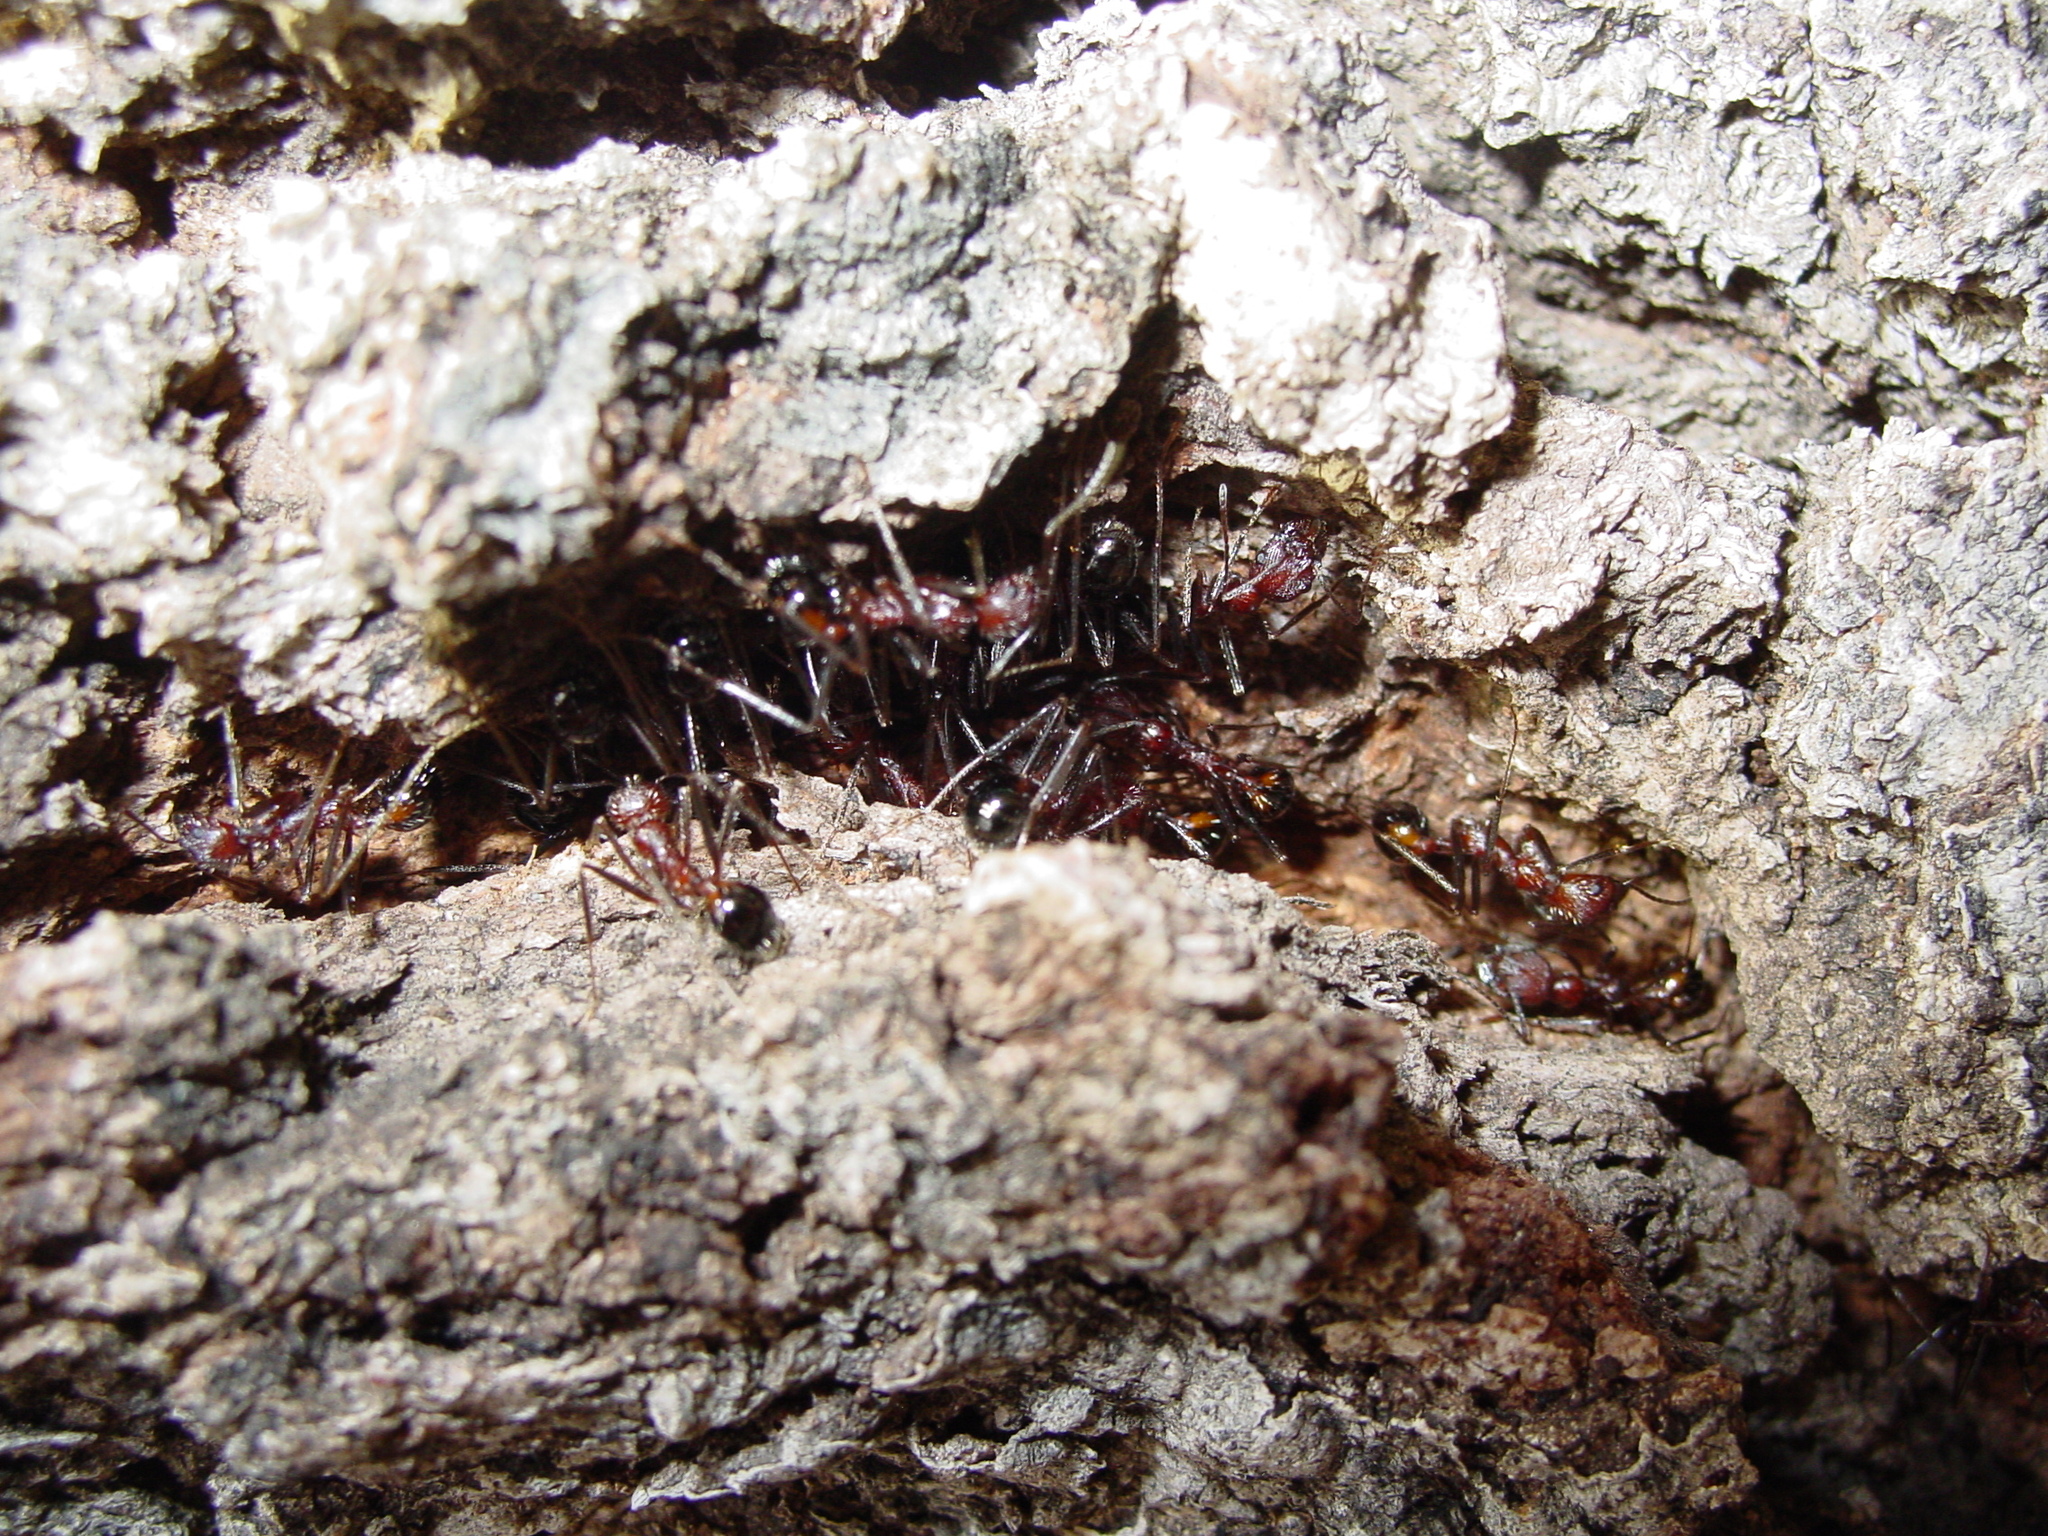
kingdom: Animalia
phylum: Arthropoda
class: Insecta
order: Hymenoptera
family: Formicidae
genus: Novomessor
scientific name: Novomessor
